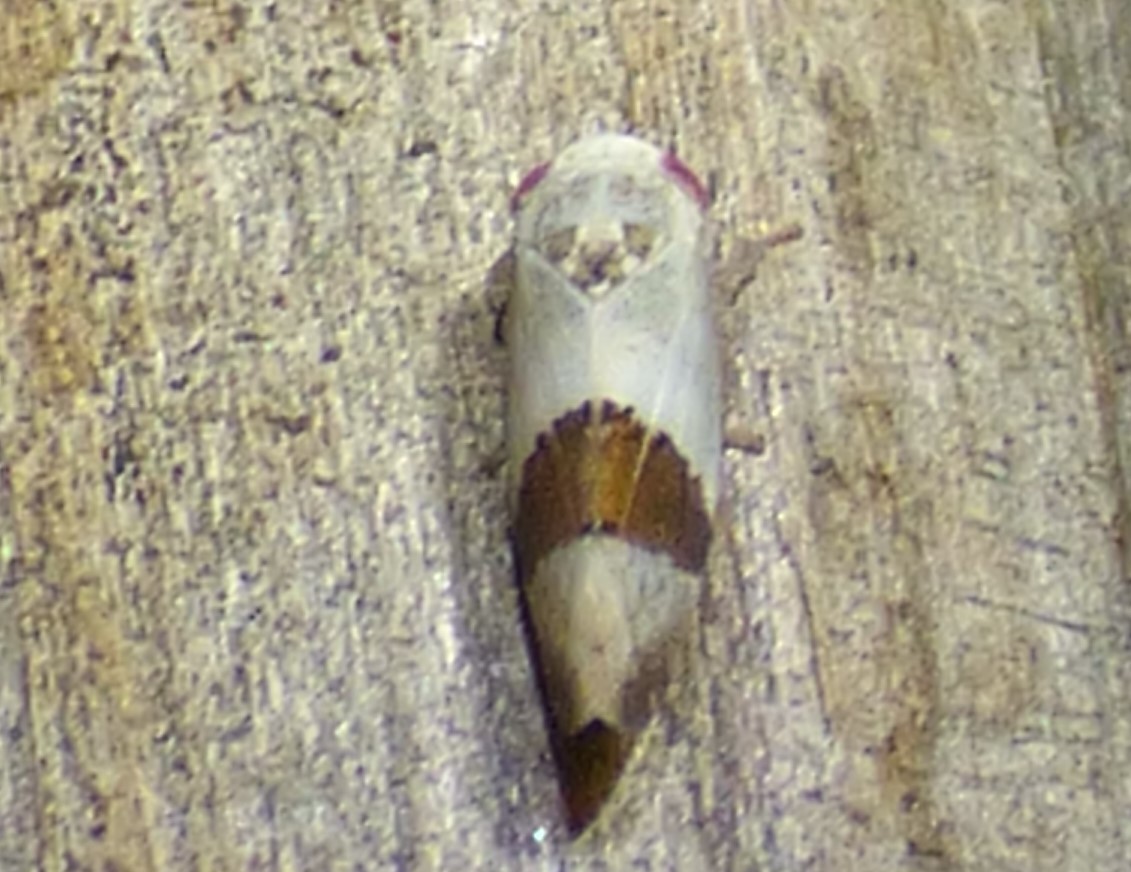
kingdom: Animalia
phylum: Arthropoda
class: Insecta
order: Hemiptera
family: Cicadellidae
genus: Norvellina
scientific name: Norvellina seminuda
